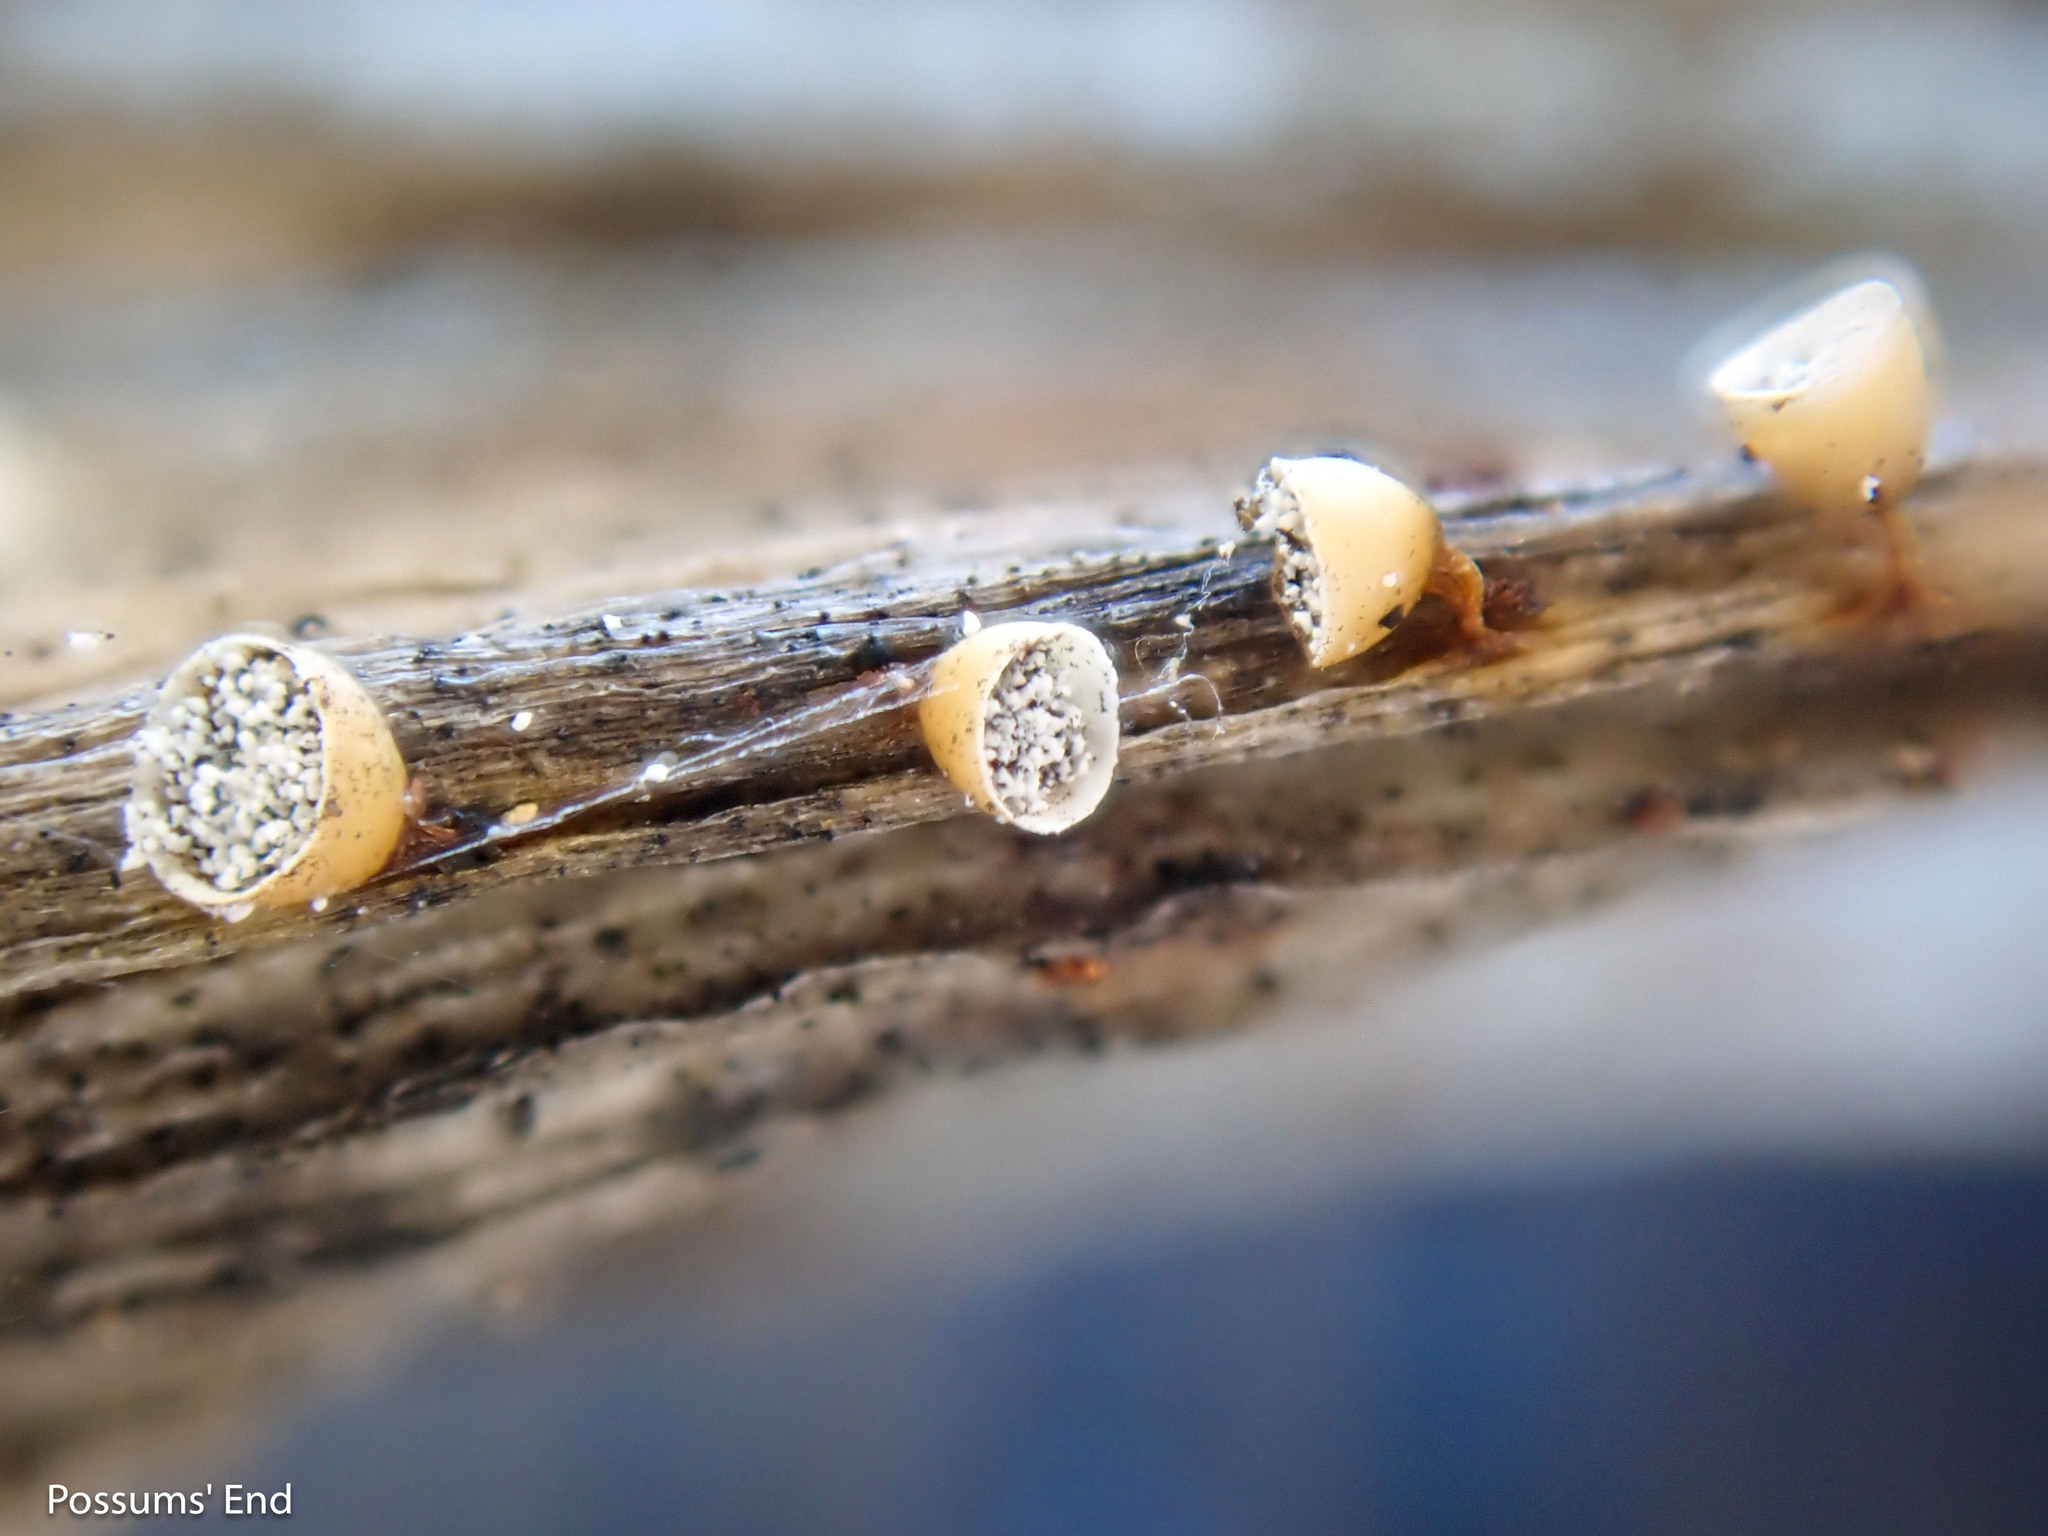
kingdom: Protozoa
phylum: Mycetozoa
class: Myxomycetes
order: Physarales
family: Physaraceae
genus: Craterium
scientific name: Craterium minutum
